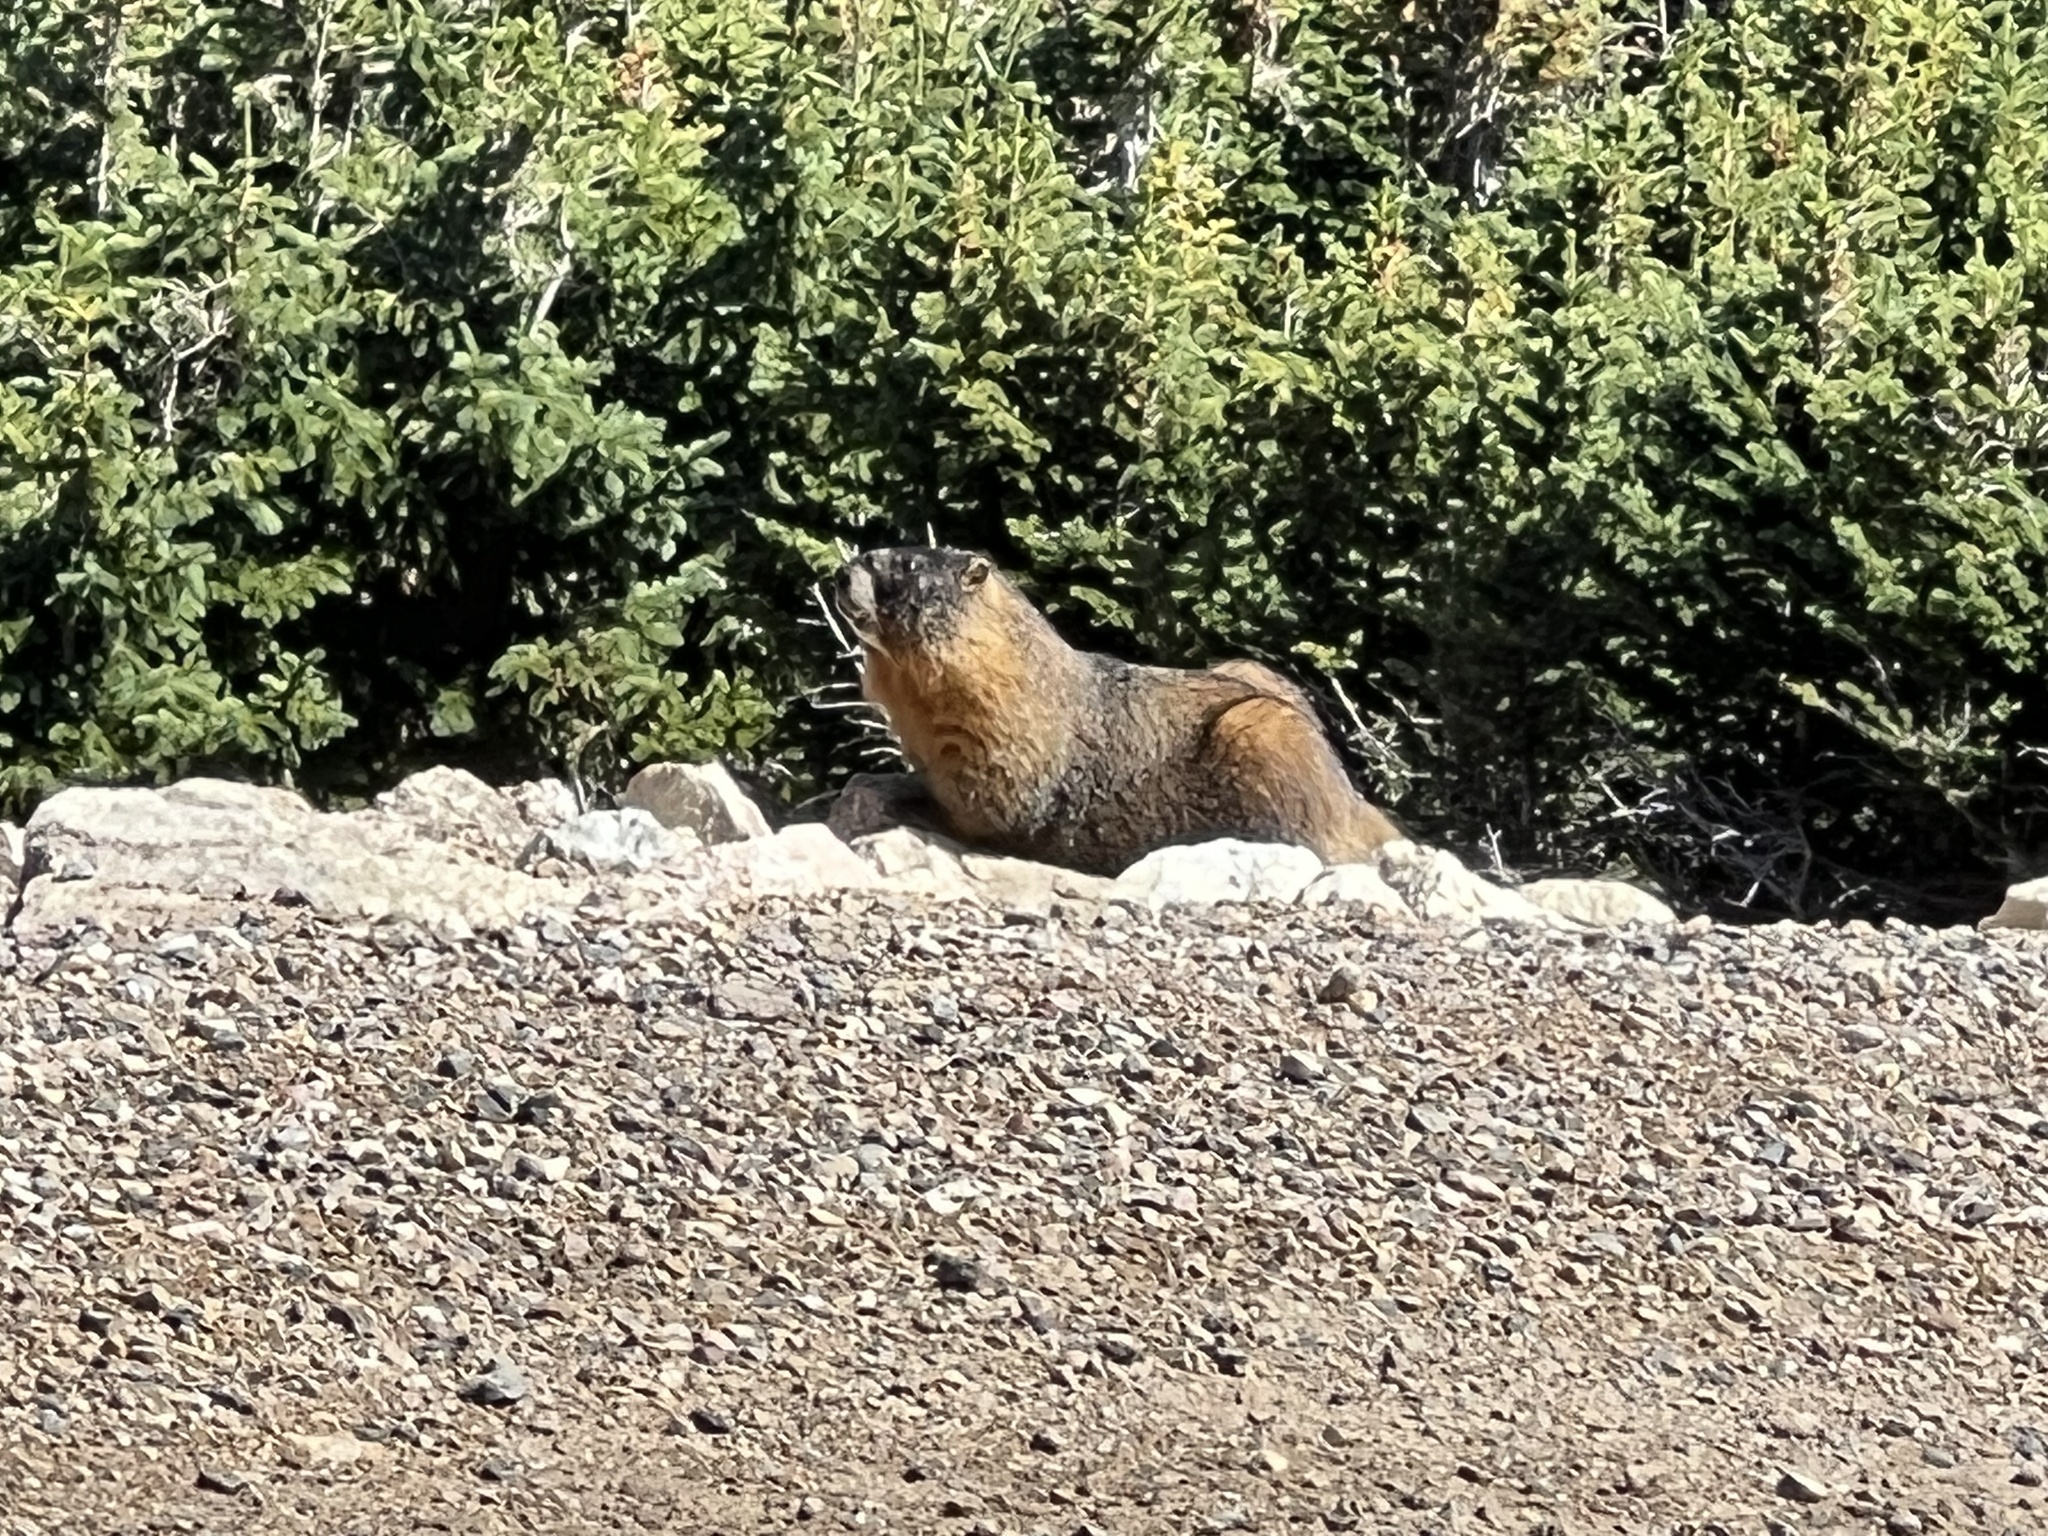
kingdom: Animalia
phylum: Chordata
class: Mammalia
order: Rodentia
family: Sciuridae
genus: Marmota
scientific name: Marmota flaviventris
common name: Yellow-bellied marmot
